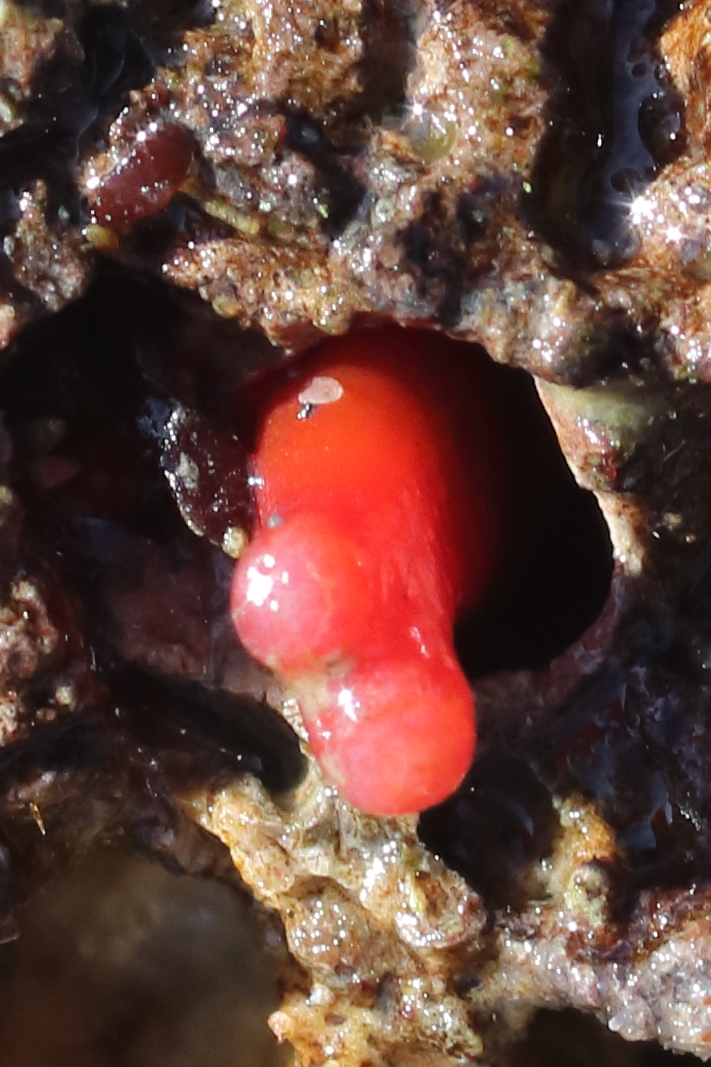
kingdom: Animalia
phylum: Mollusca
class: Bivalvia
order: Adapedonta
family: Hiatellidae
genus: Hiatella
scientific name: Hiatella arctica
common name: Arctic hiatella
